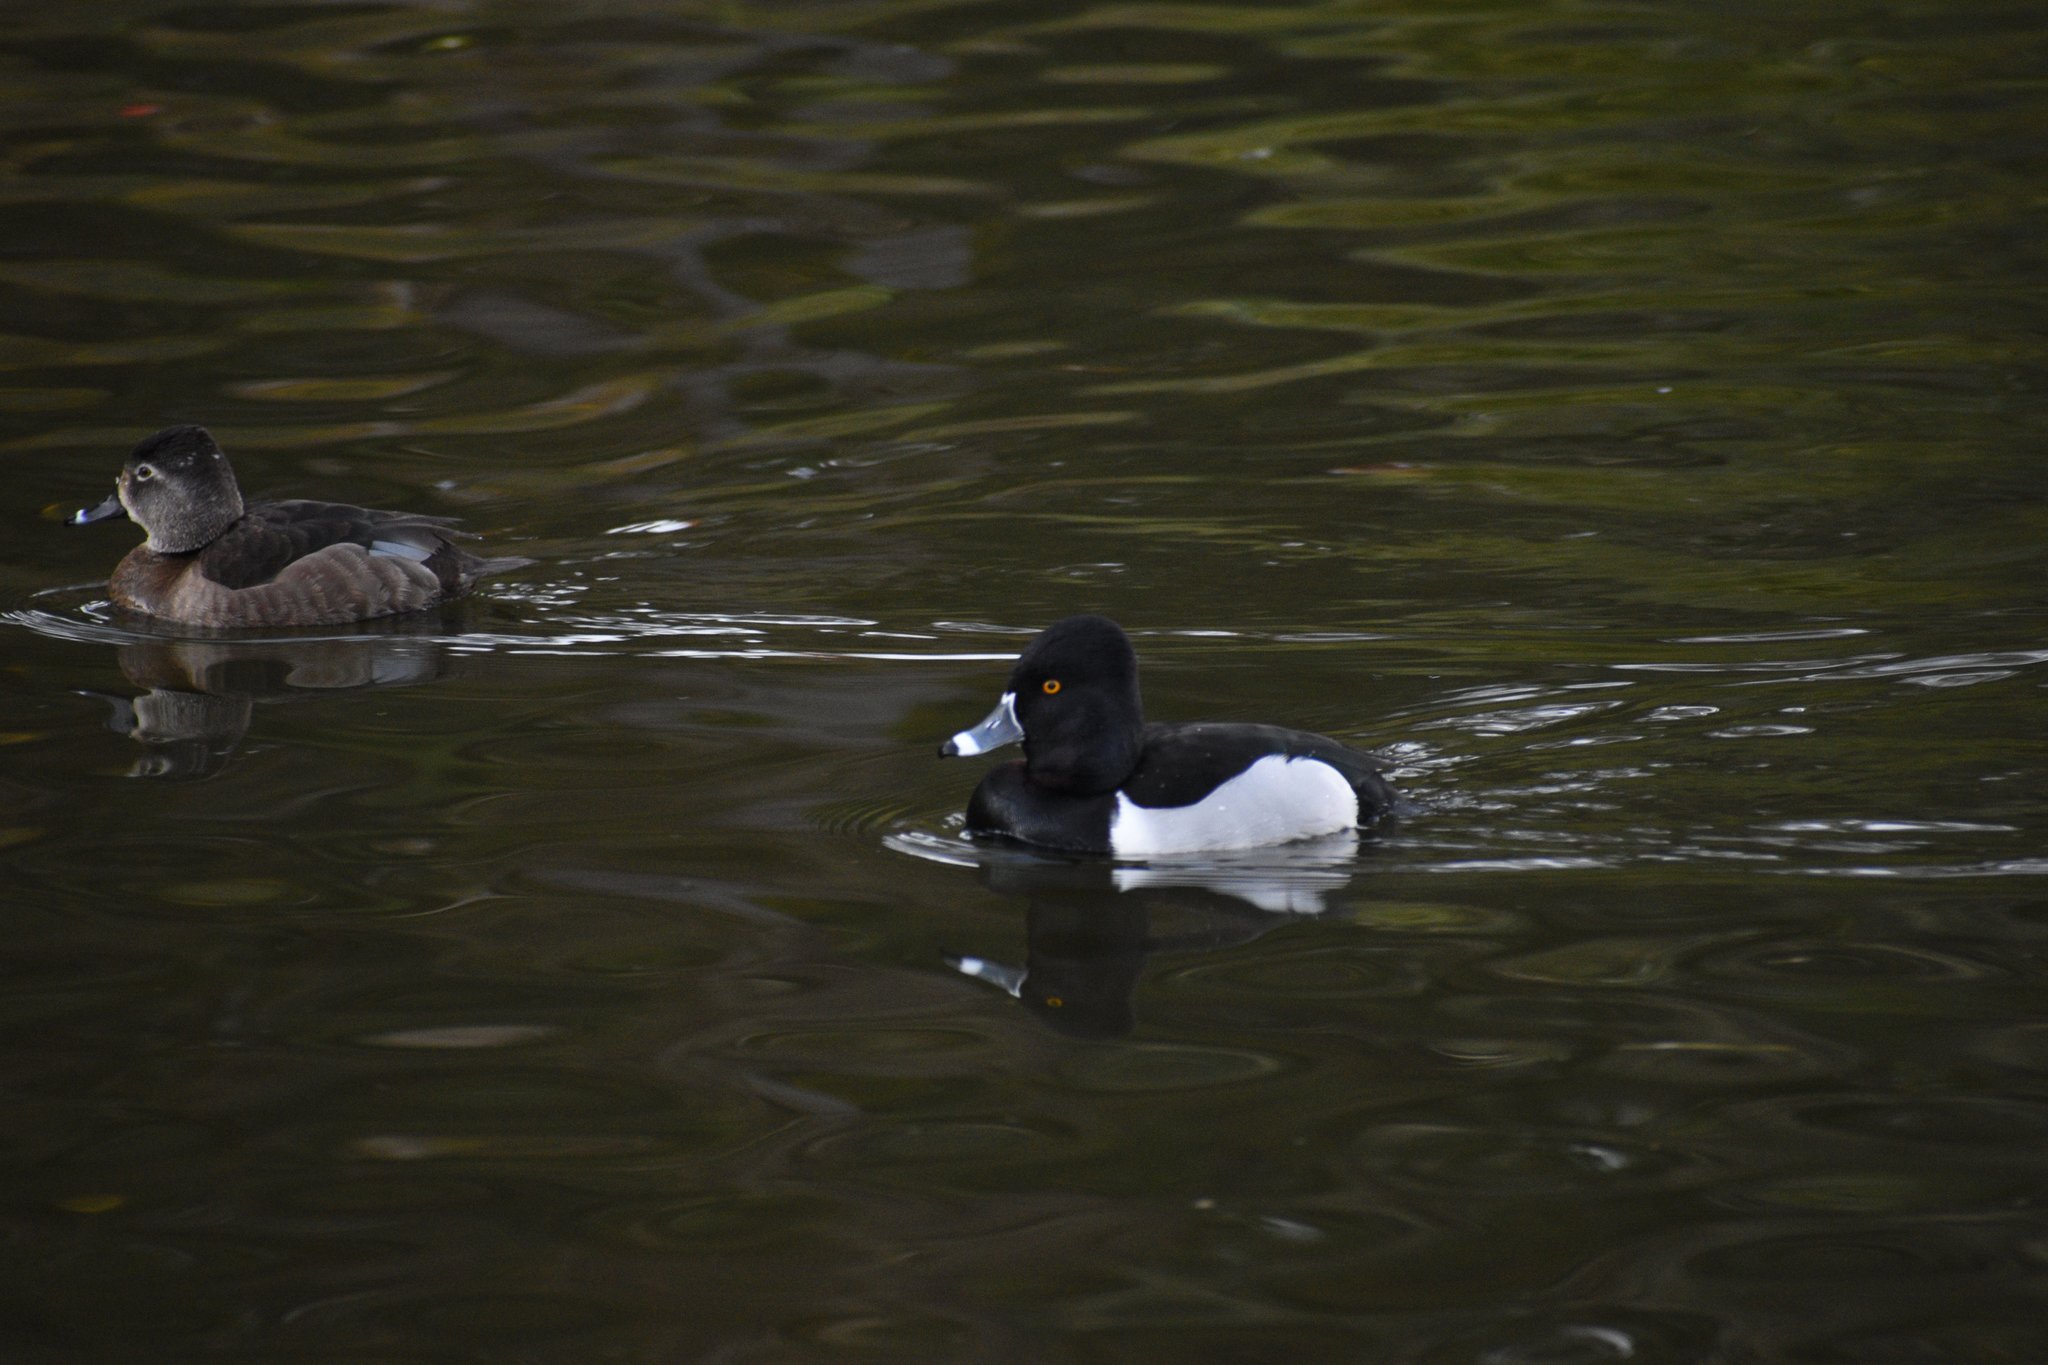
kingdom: Animalia
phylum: Chordata
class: Aves
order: Anseriformes
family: Anatidae
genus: Aythya
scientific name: Aythya collaris
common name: Ring-necked duck
